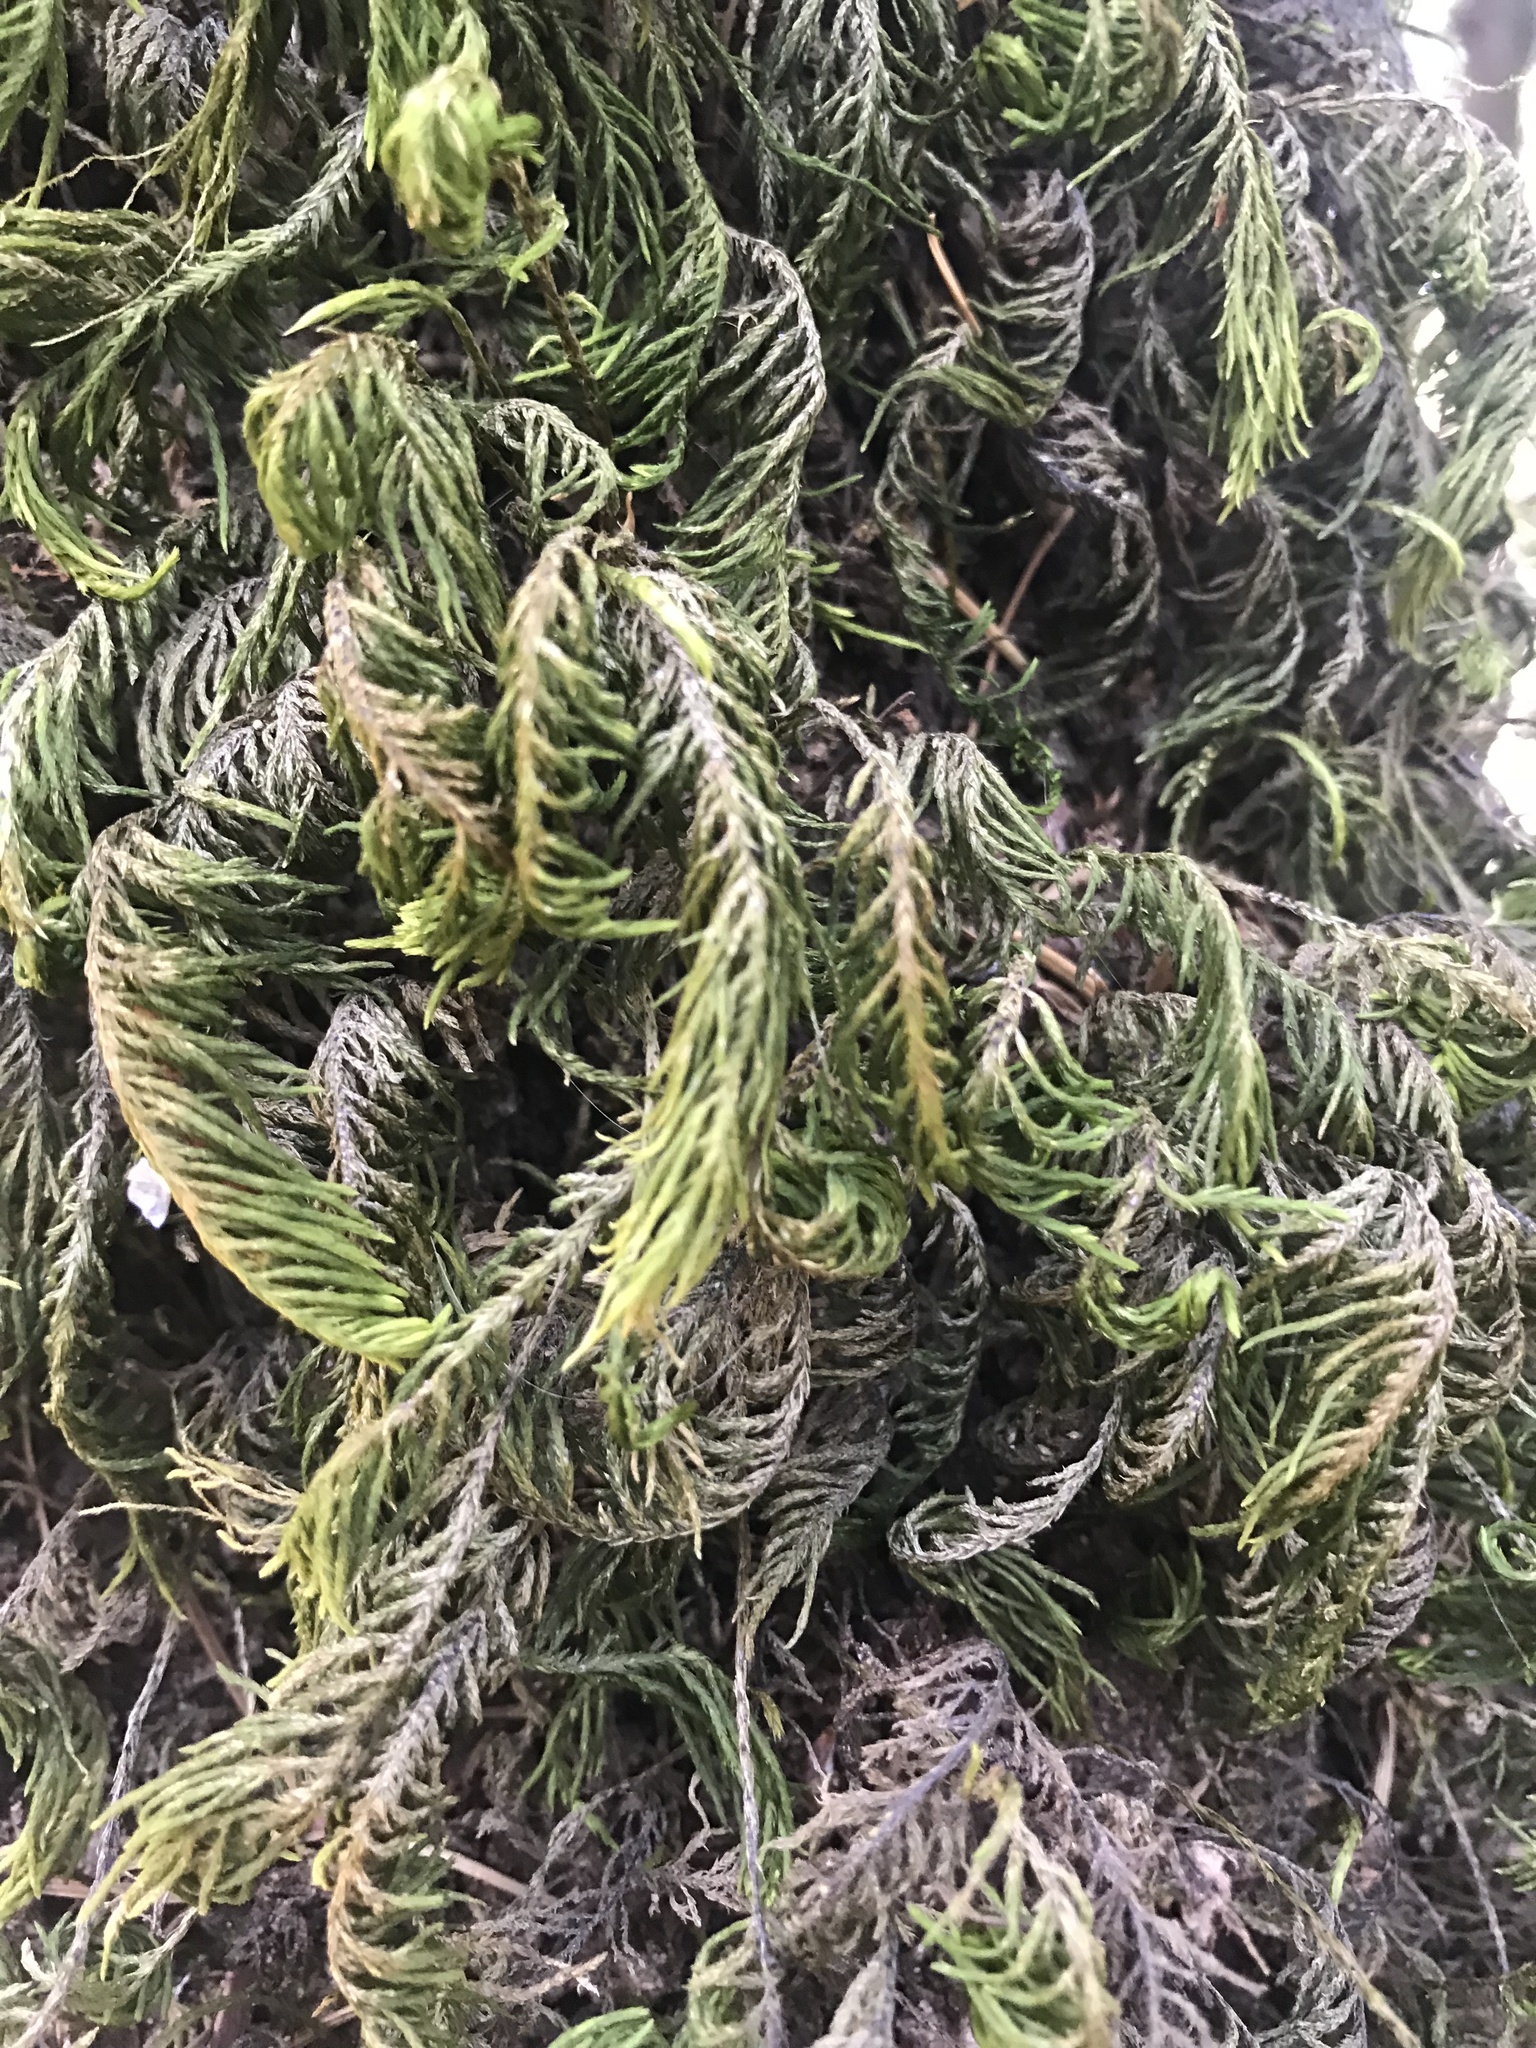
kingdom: Plantae
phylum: Bryophyta
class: Bryopsida
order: Hypnales
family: Cryphaeaceae
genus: Dendroalsia
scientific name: Dendroalsia abietina
